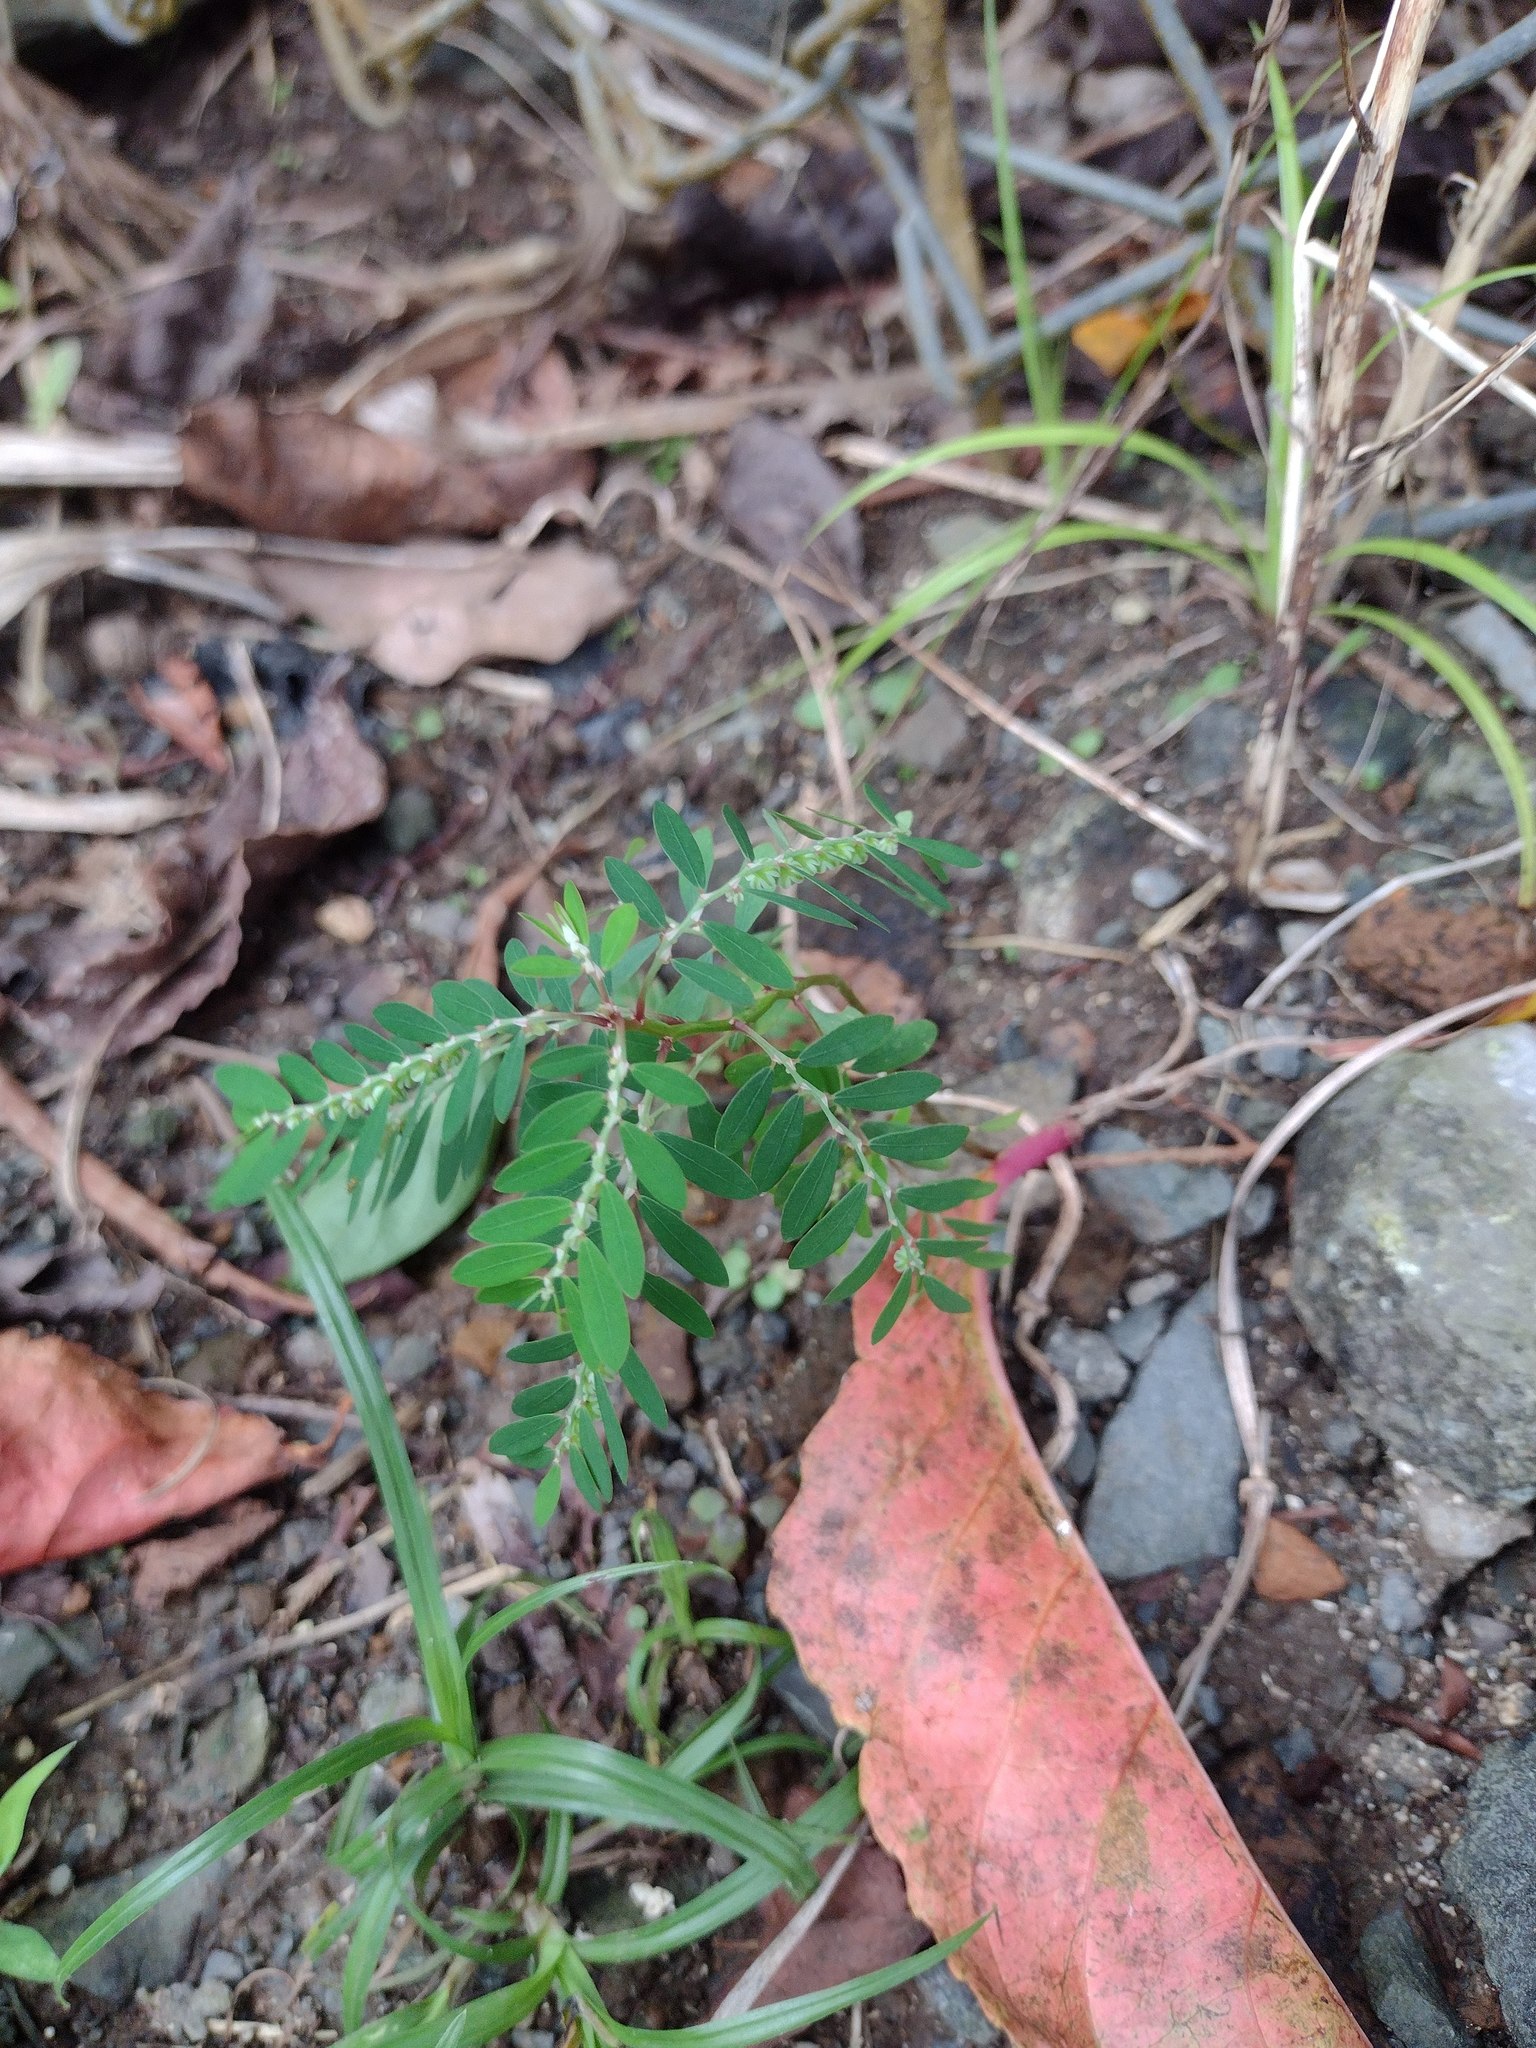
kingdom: Plantae
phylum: Tracheophyta
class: Magnoliopsida
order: Malpighiales
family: Phyllanthaceae
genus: Phyllanthus
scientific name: Phyllanthus debilis
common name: Niruri
